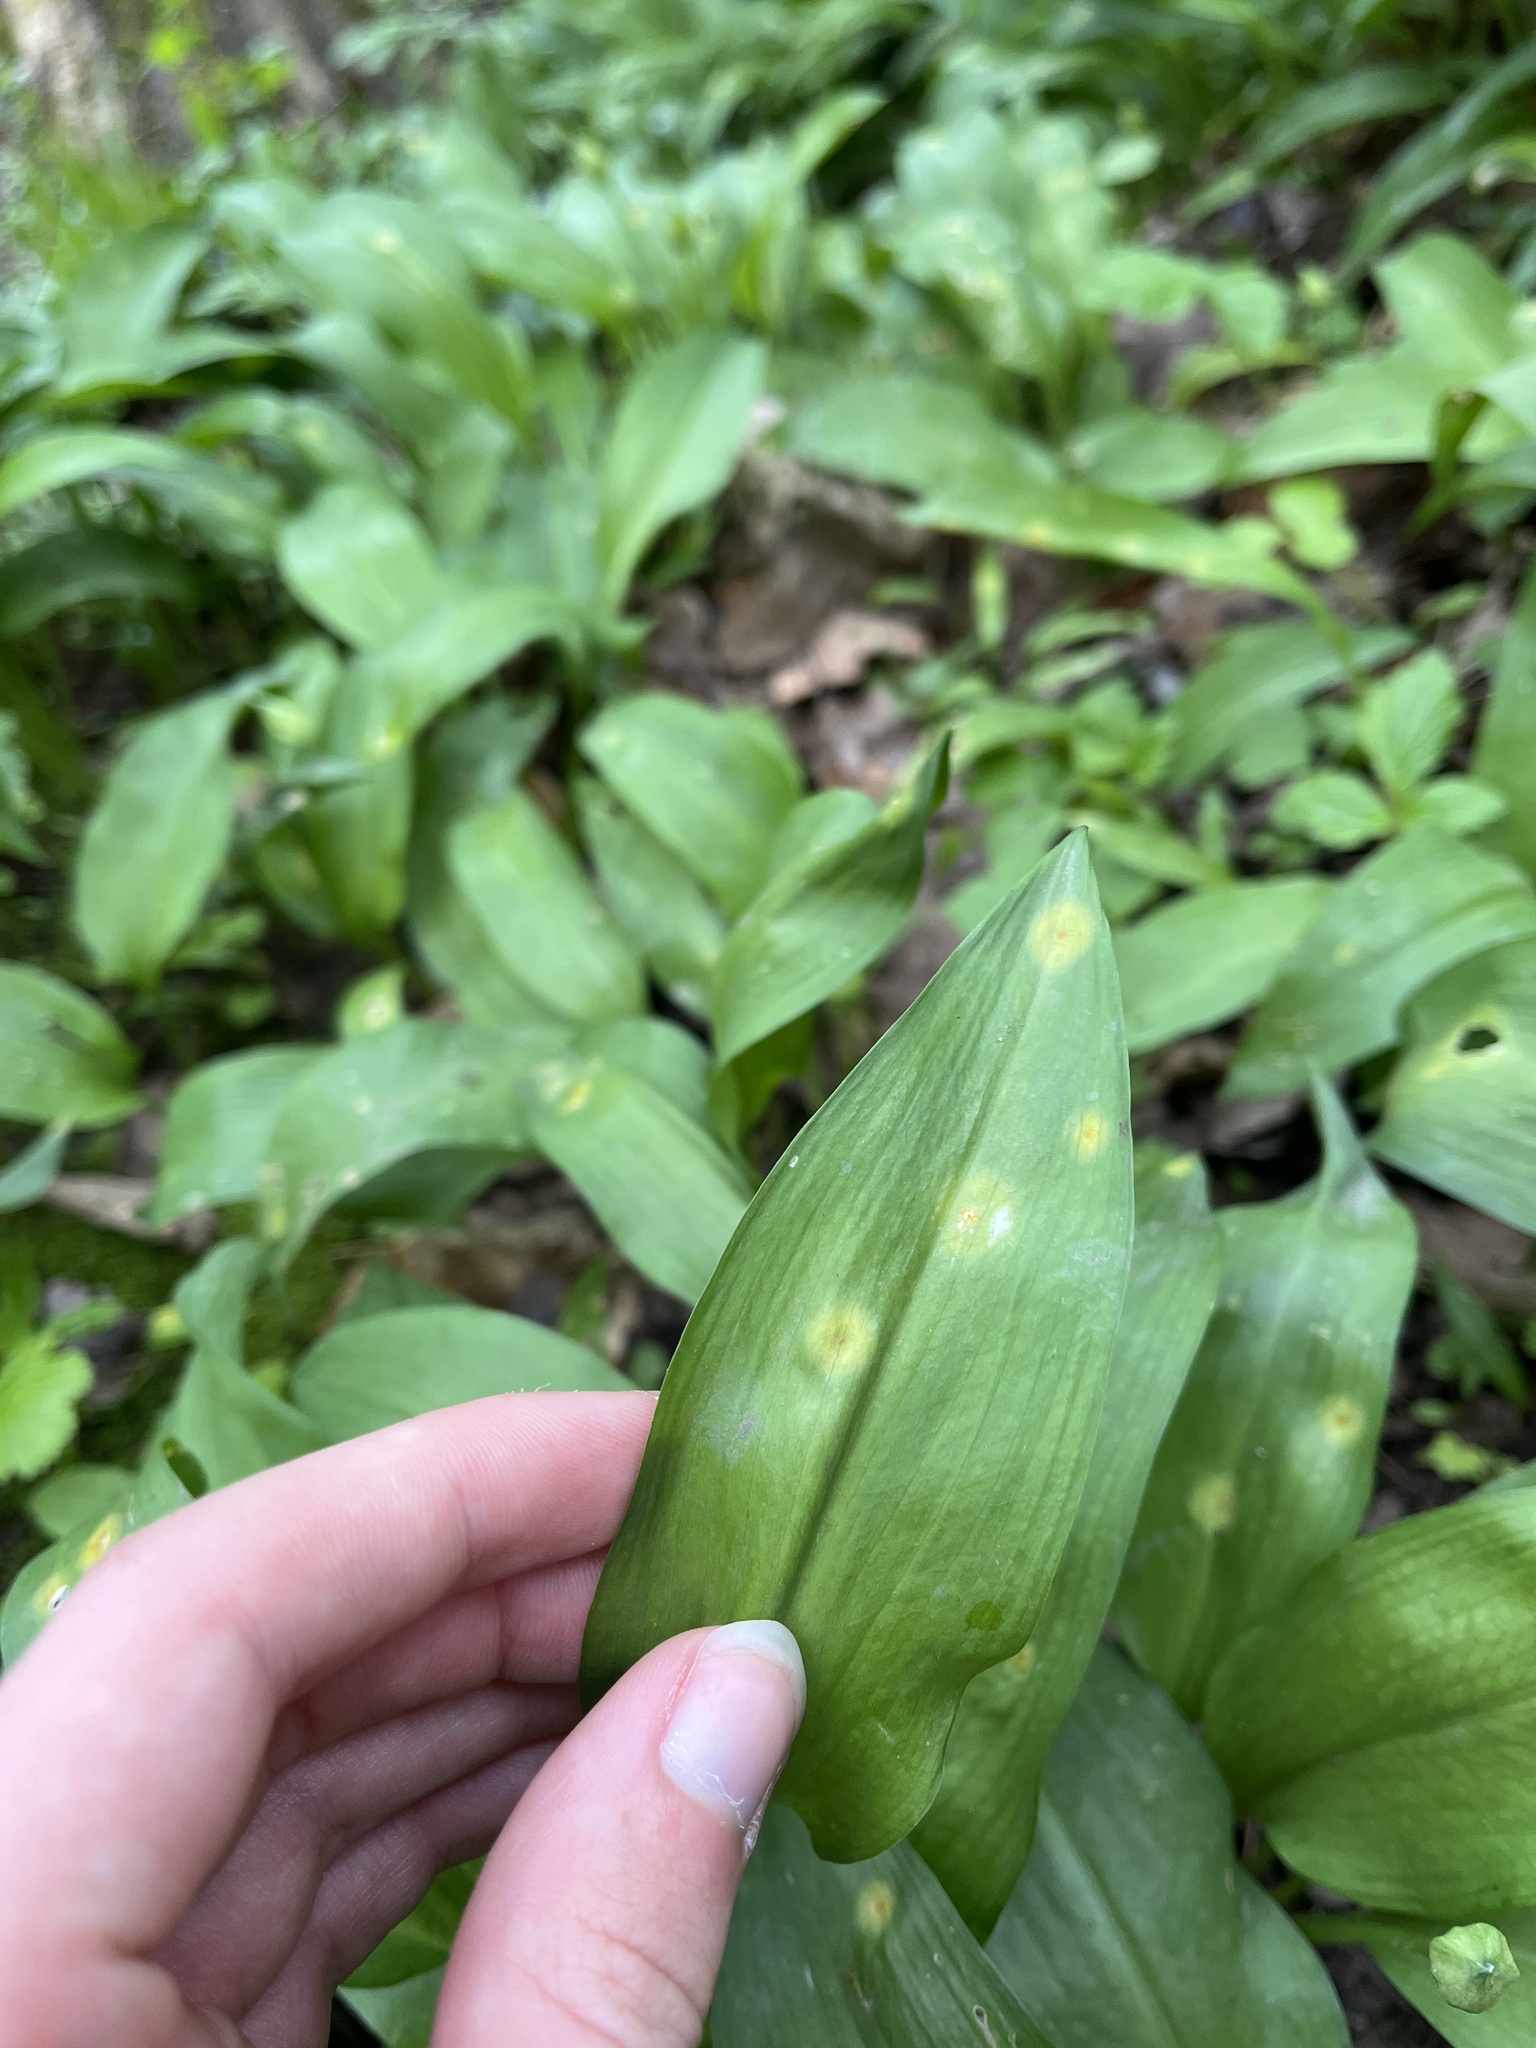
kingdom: Fungi
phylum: Basidiomycota
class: Pucciniomycetes
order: Pucciniales
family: Pucciniaceae
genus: Puccinia
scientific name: Puccinia sessilis
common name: Arum rust
